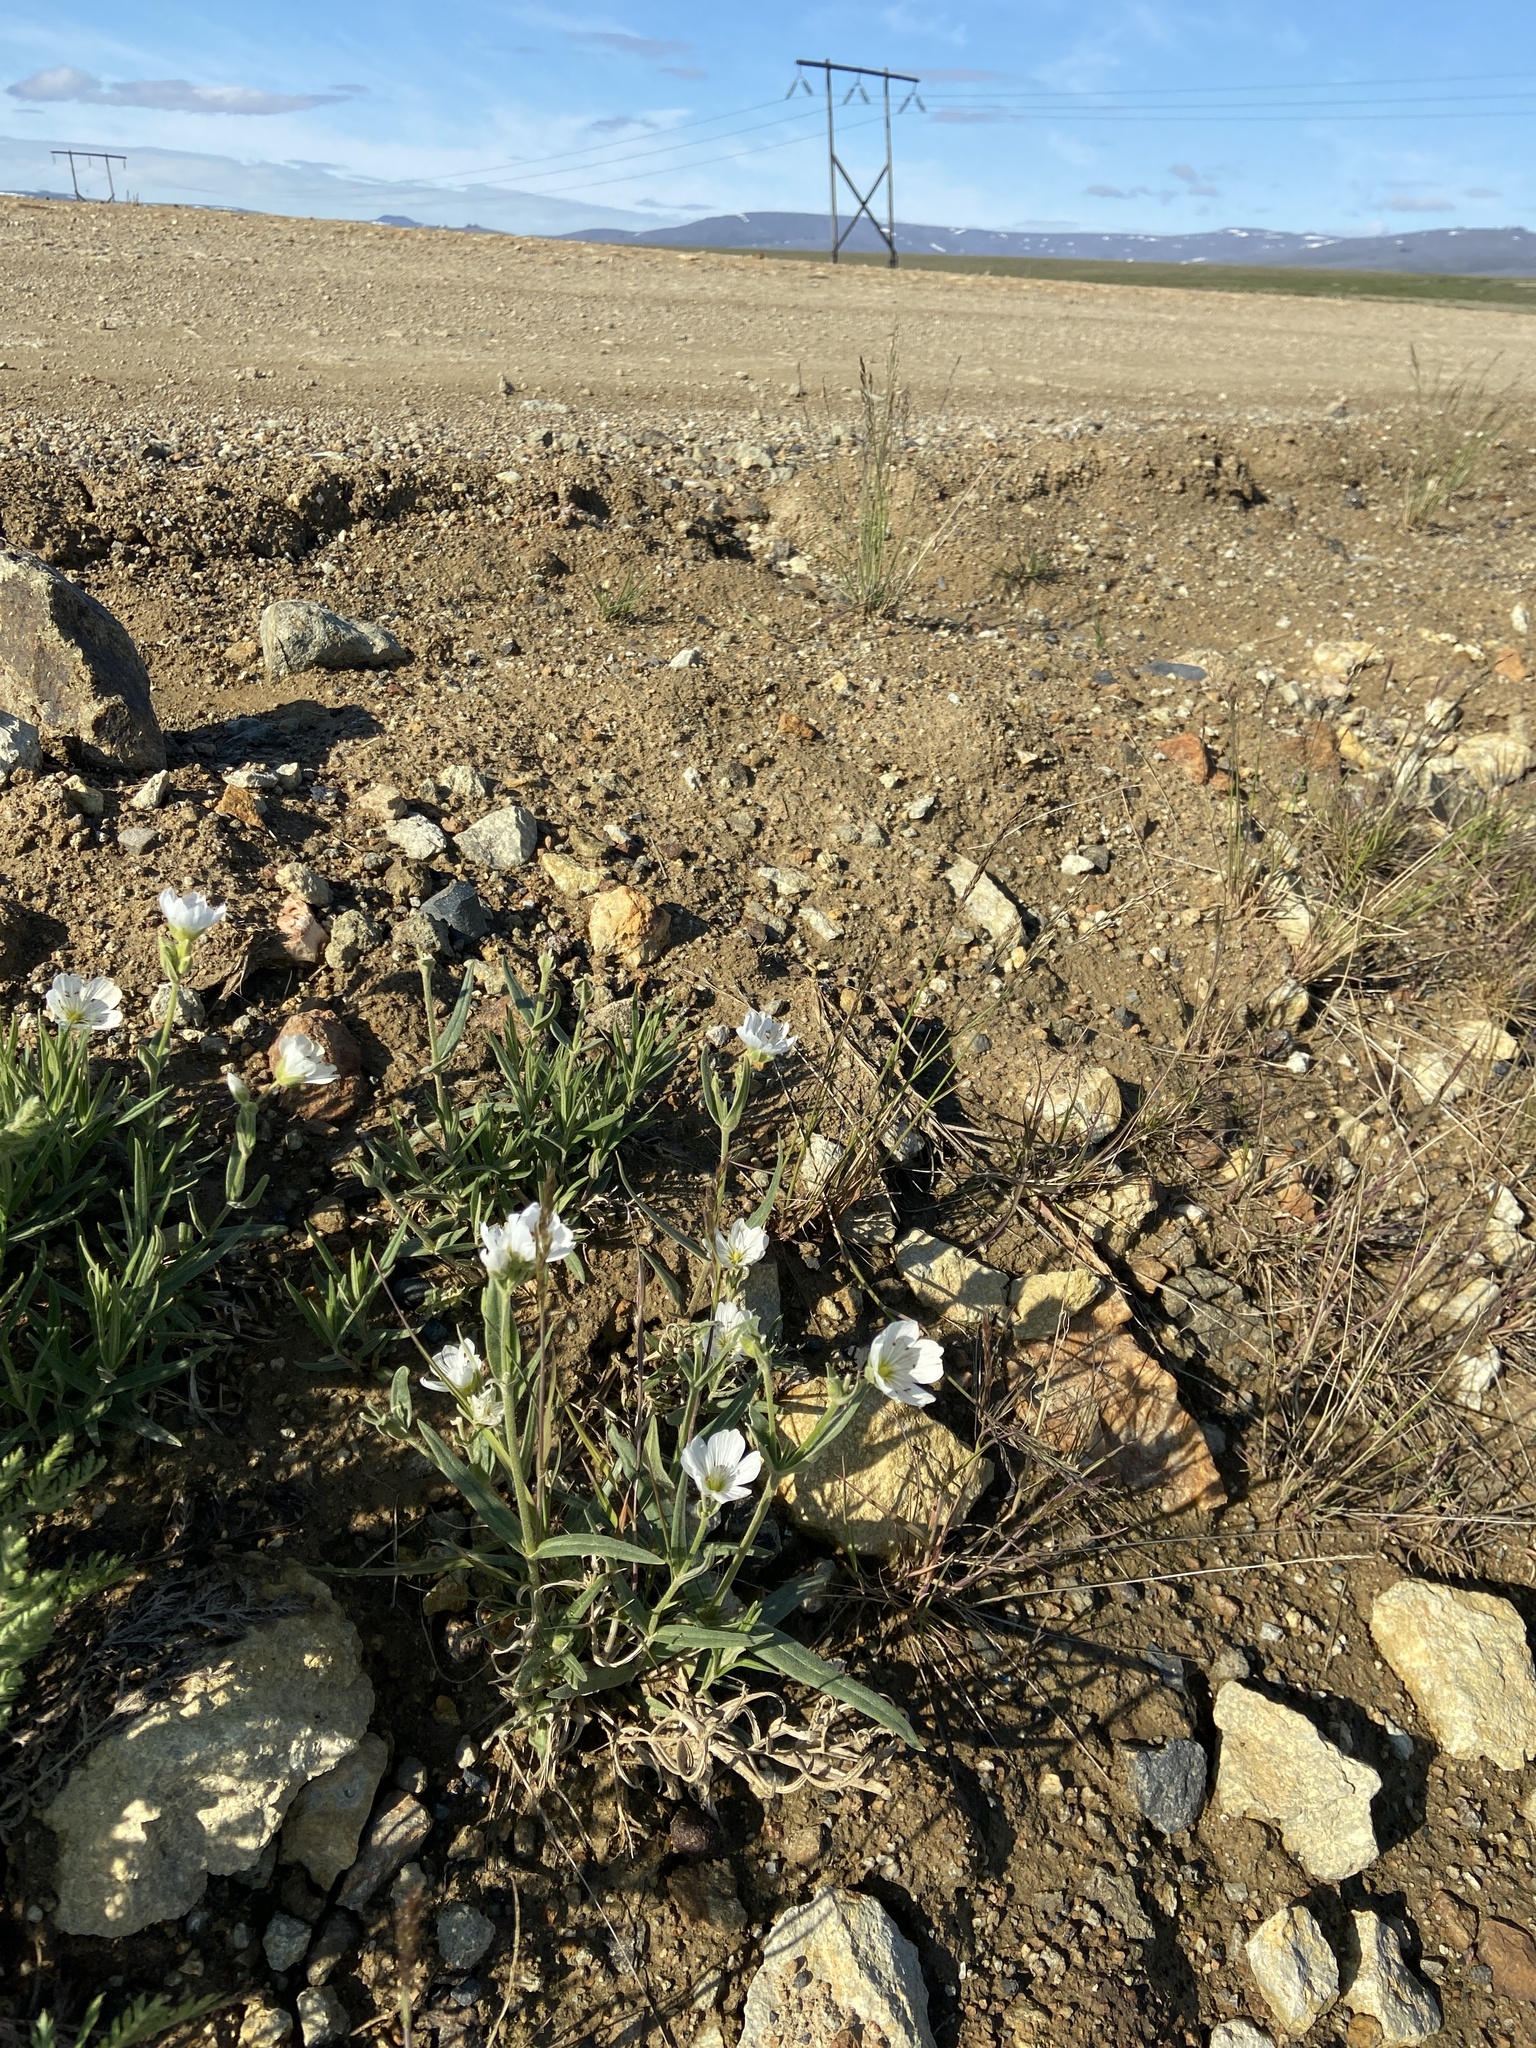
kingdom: Plantae
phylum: Tracheophyta
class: Magnoliopsida
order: Caryophyllales
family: Caryophyllaceae
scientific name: Caryophyllaceae
